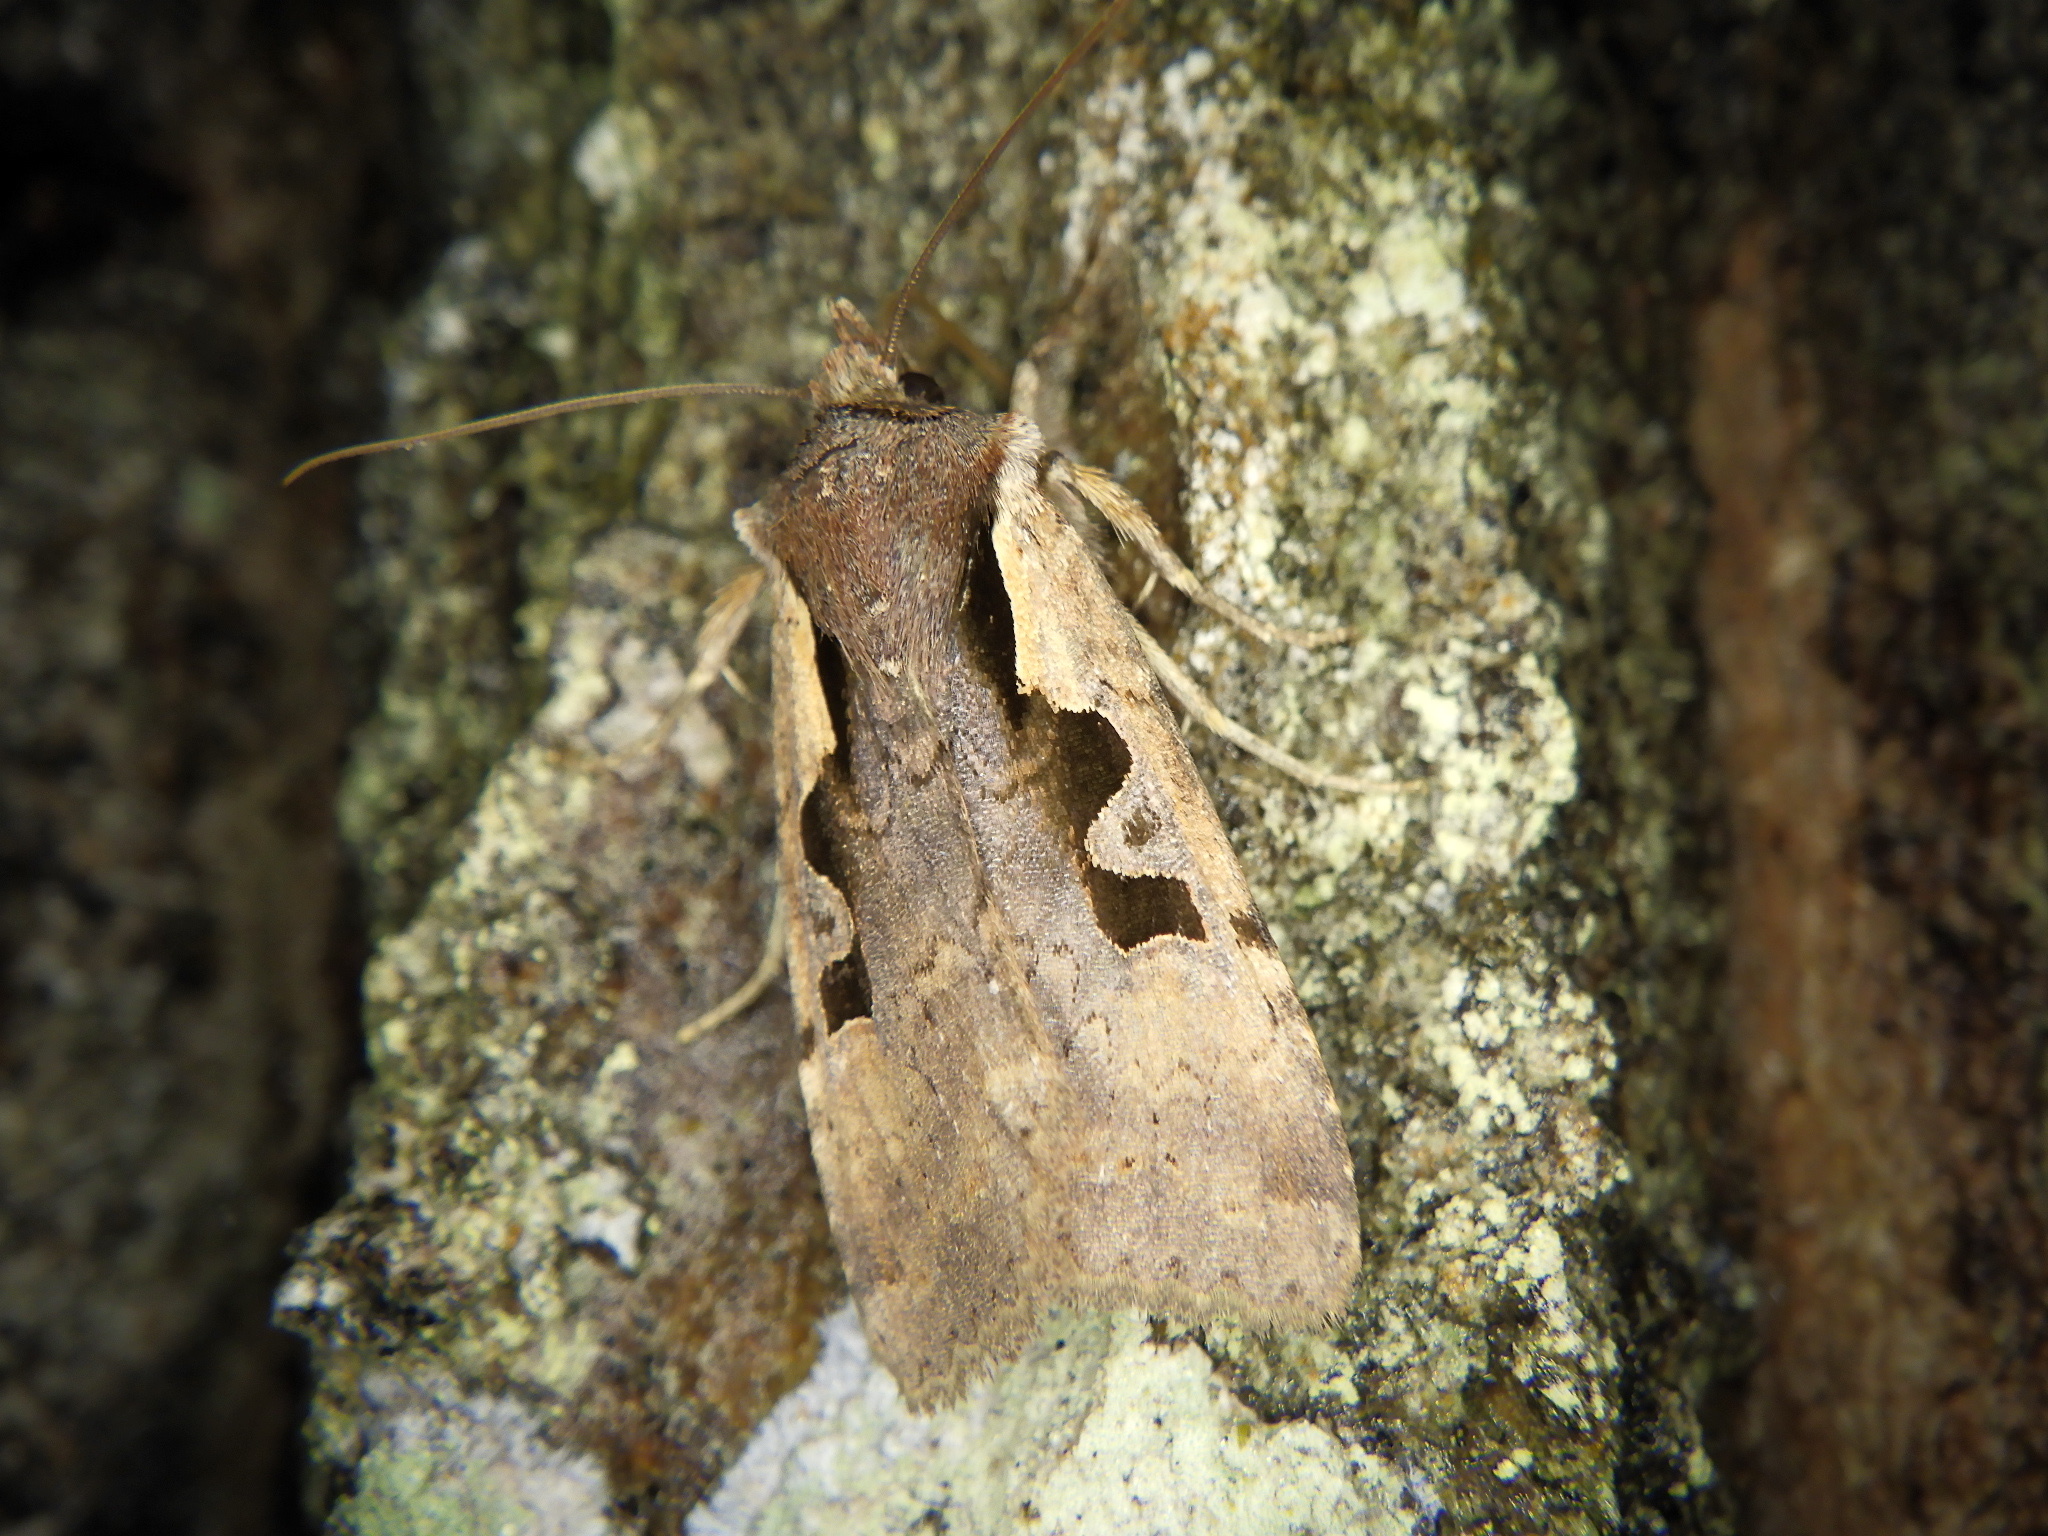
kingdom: Animalia
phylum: Arthropoda
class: Insecta
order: Lepidoptera
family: Noctuidae
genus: Sugitania
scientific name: Sugitania
